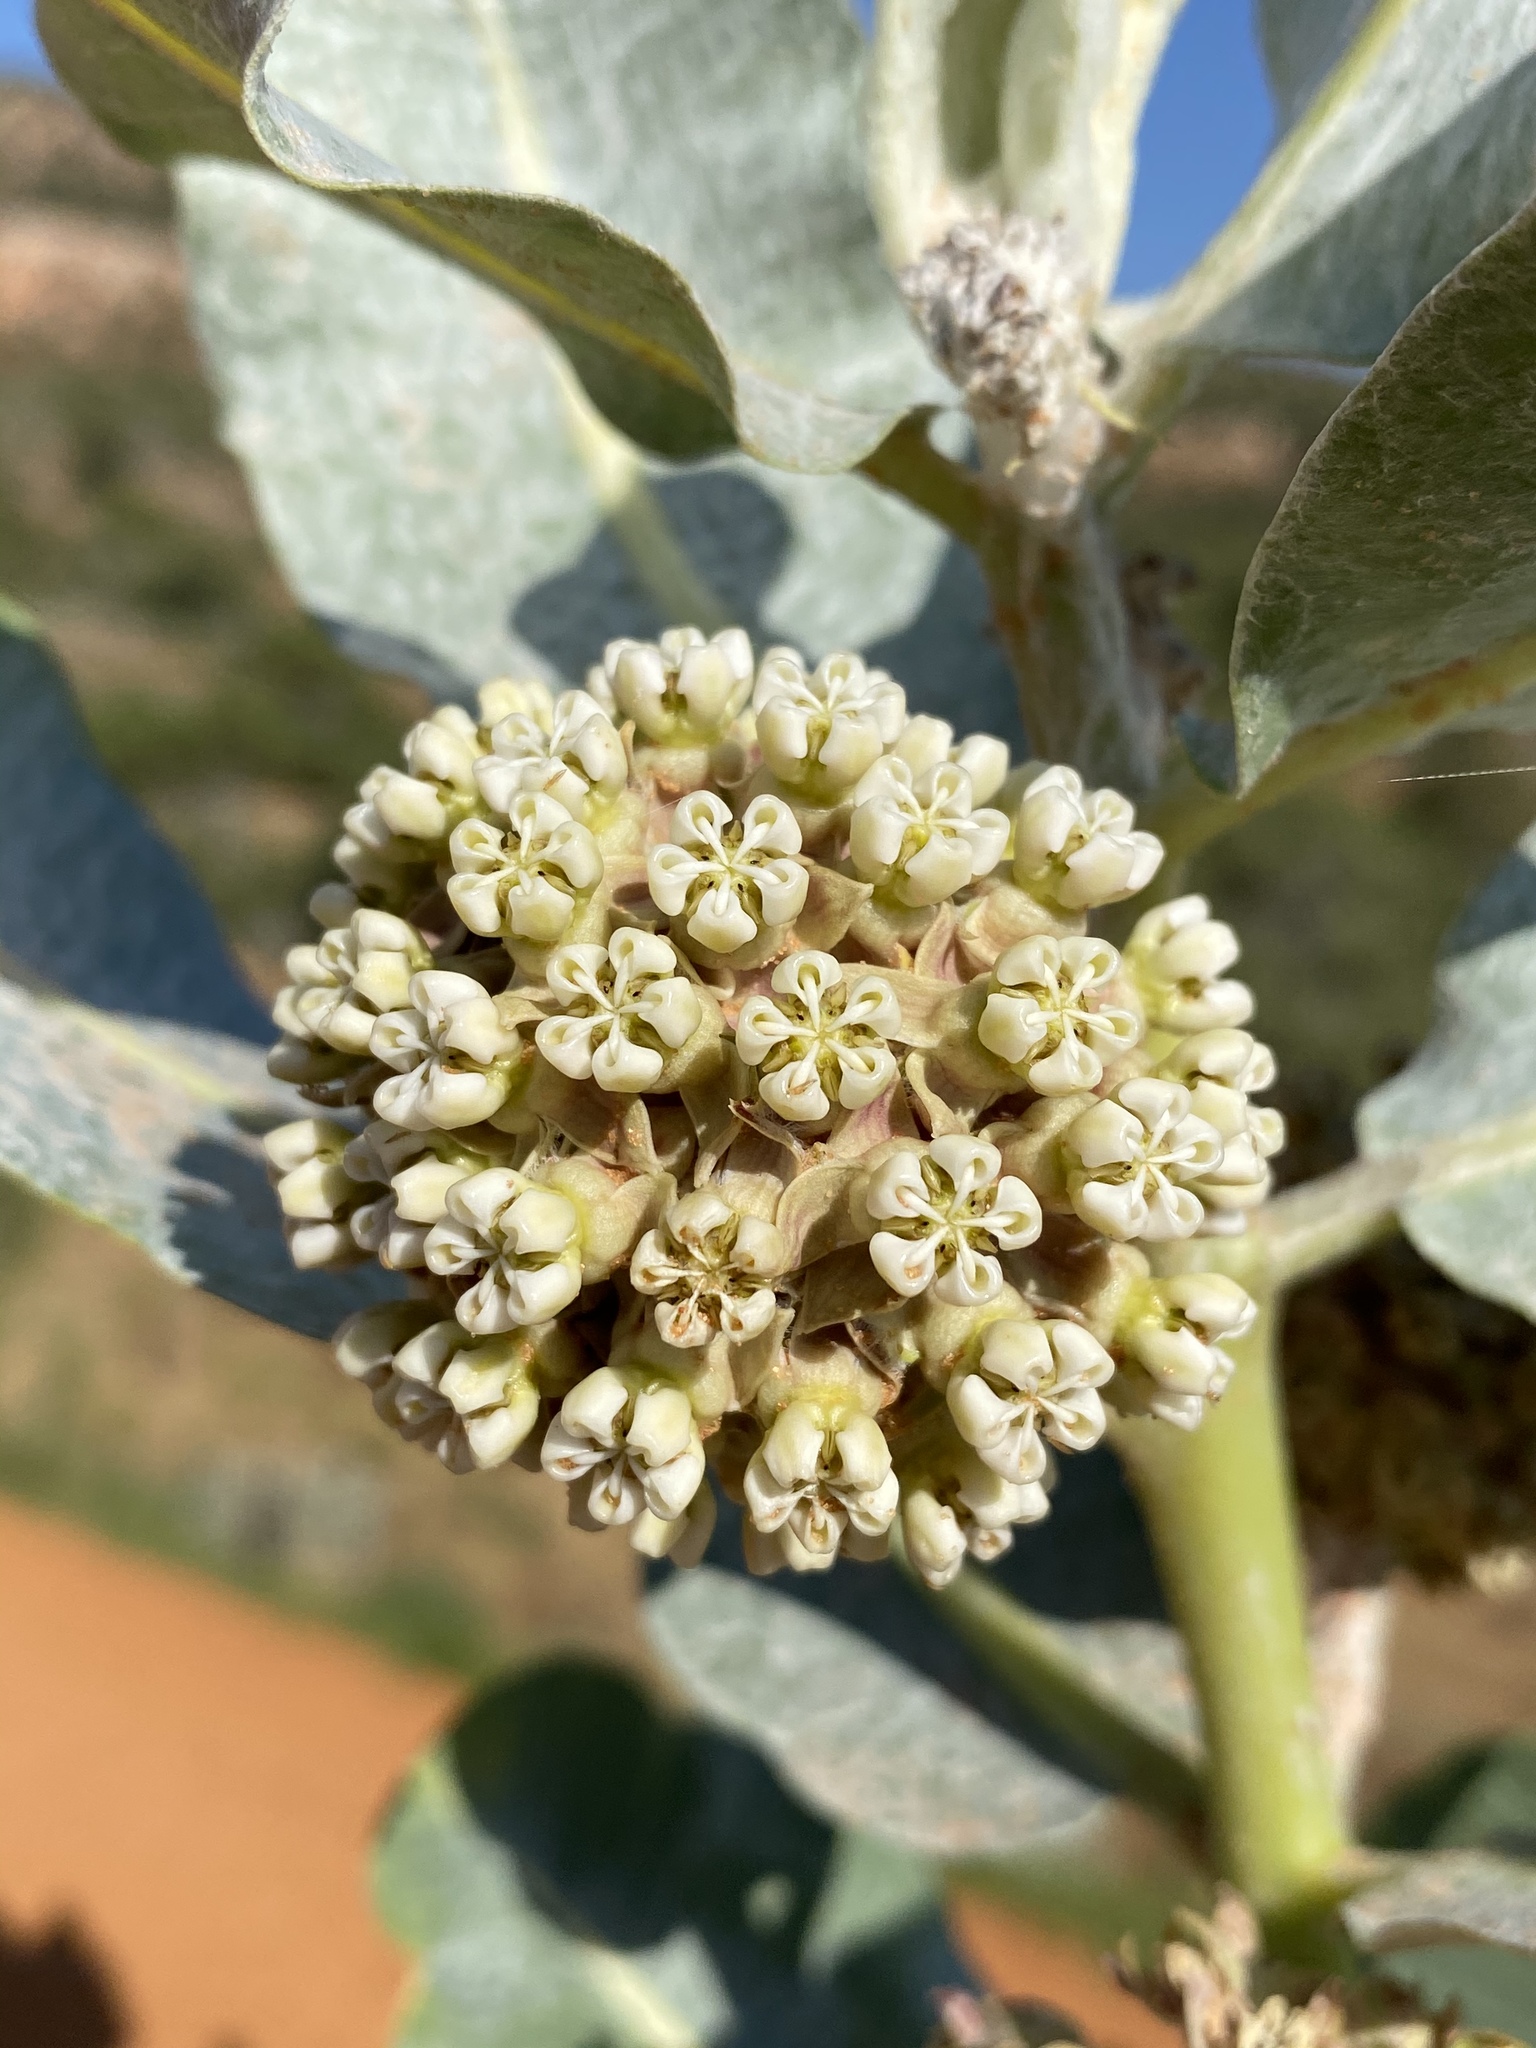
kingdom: Plantae
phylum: Tracheophyta
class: Magnoliopsida
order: Gentianales
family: Apocynaceae
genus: Asclepias
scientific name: Asclepias welshii
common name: Welsch's milkweed
